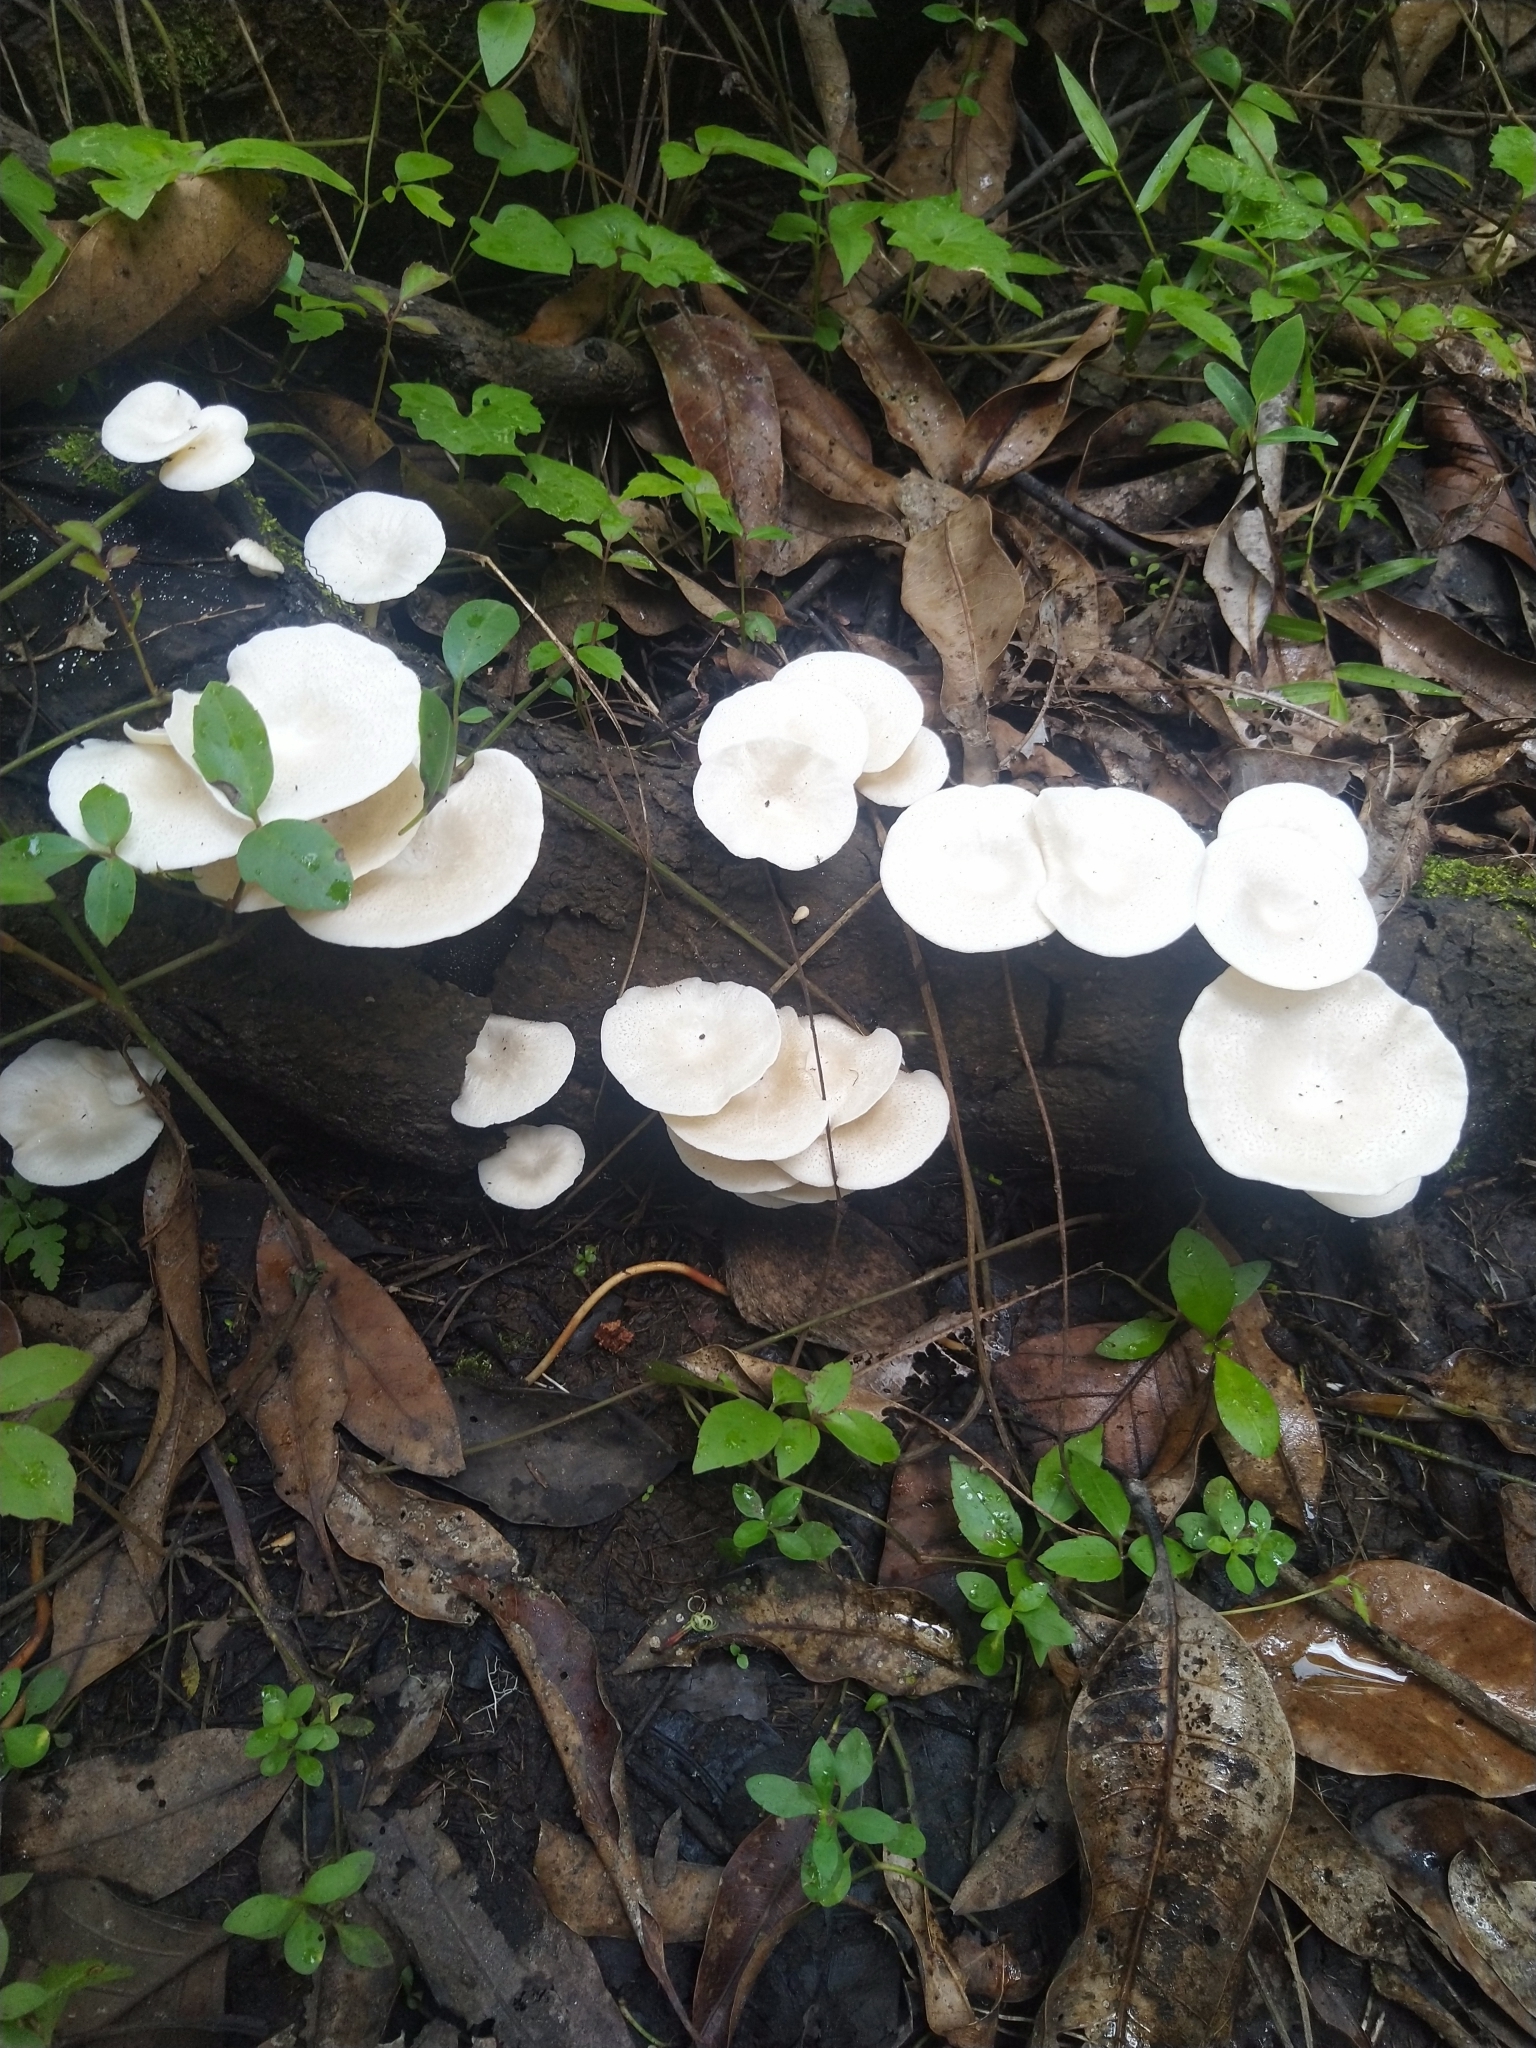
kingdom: Fungi
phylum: Basidiomycota
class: Agaricomycetes
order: Polyporales
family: Polyporaceae
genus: Lentinus
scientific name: Lentinus squarrosulus
